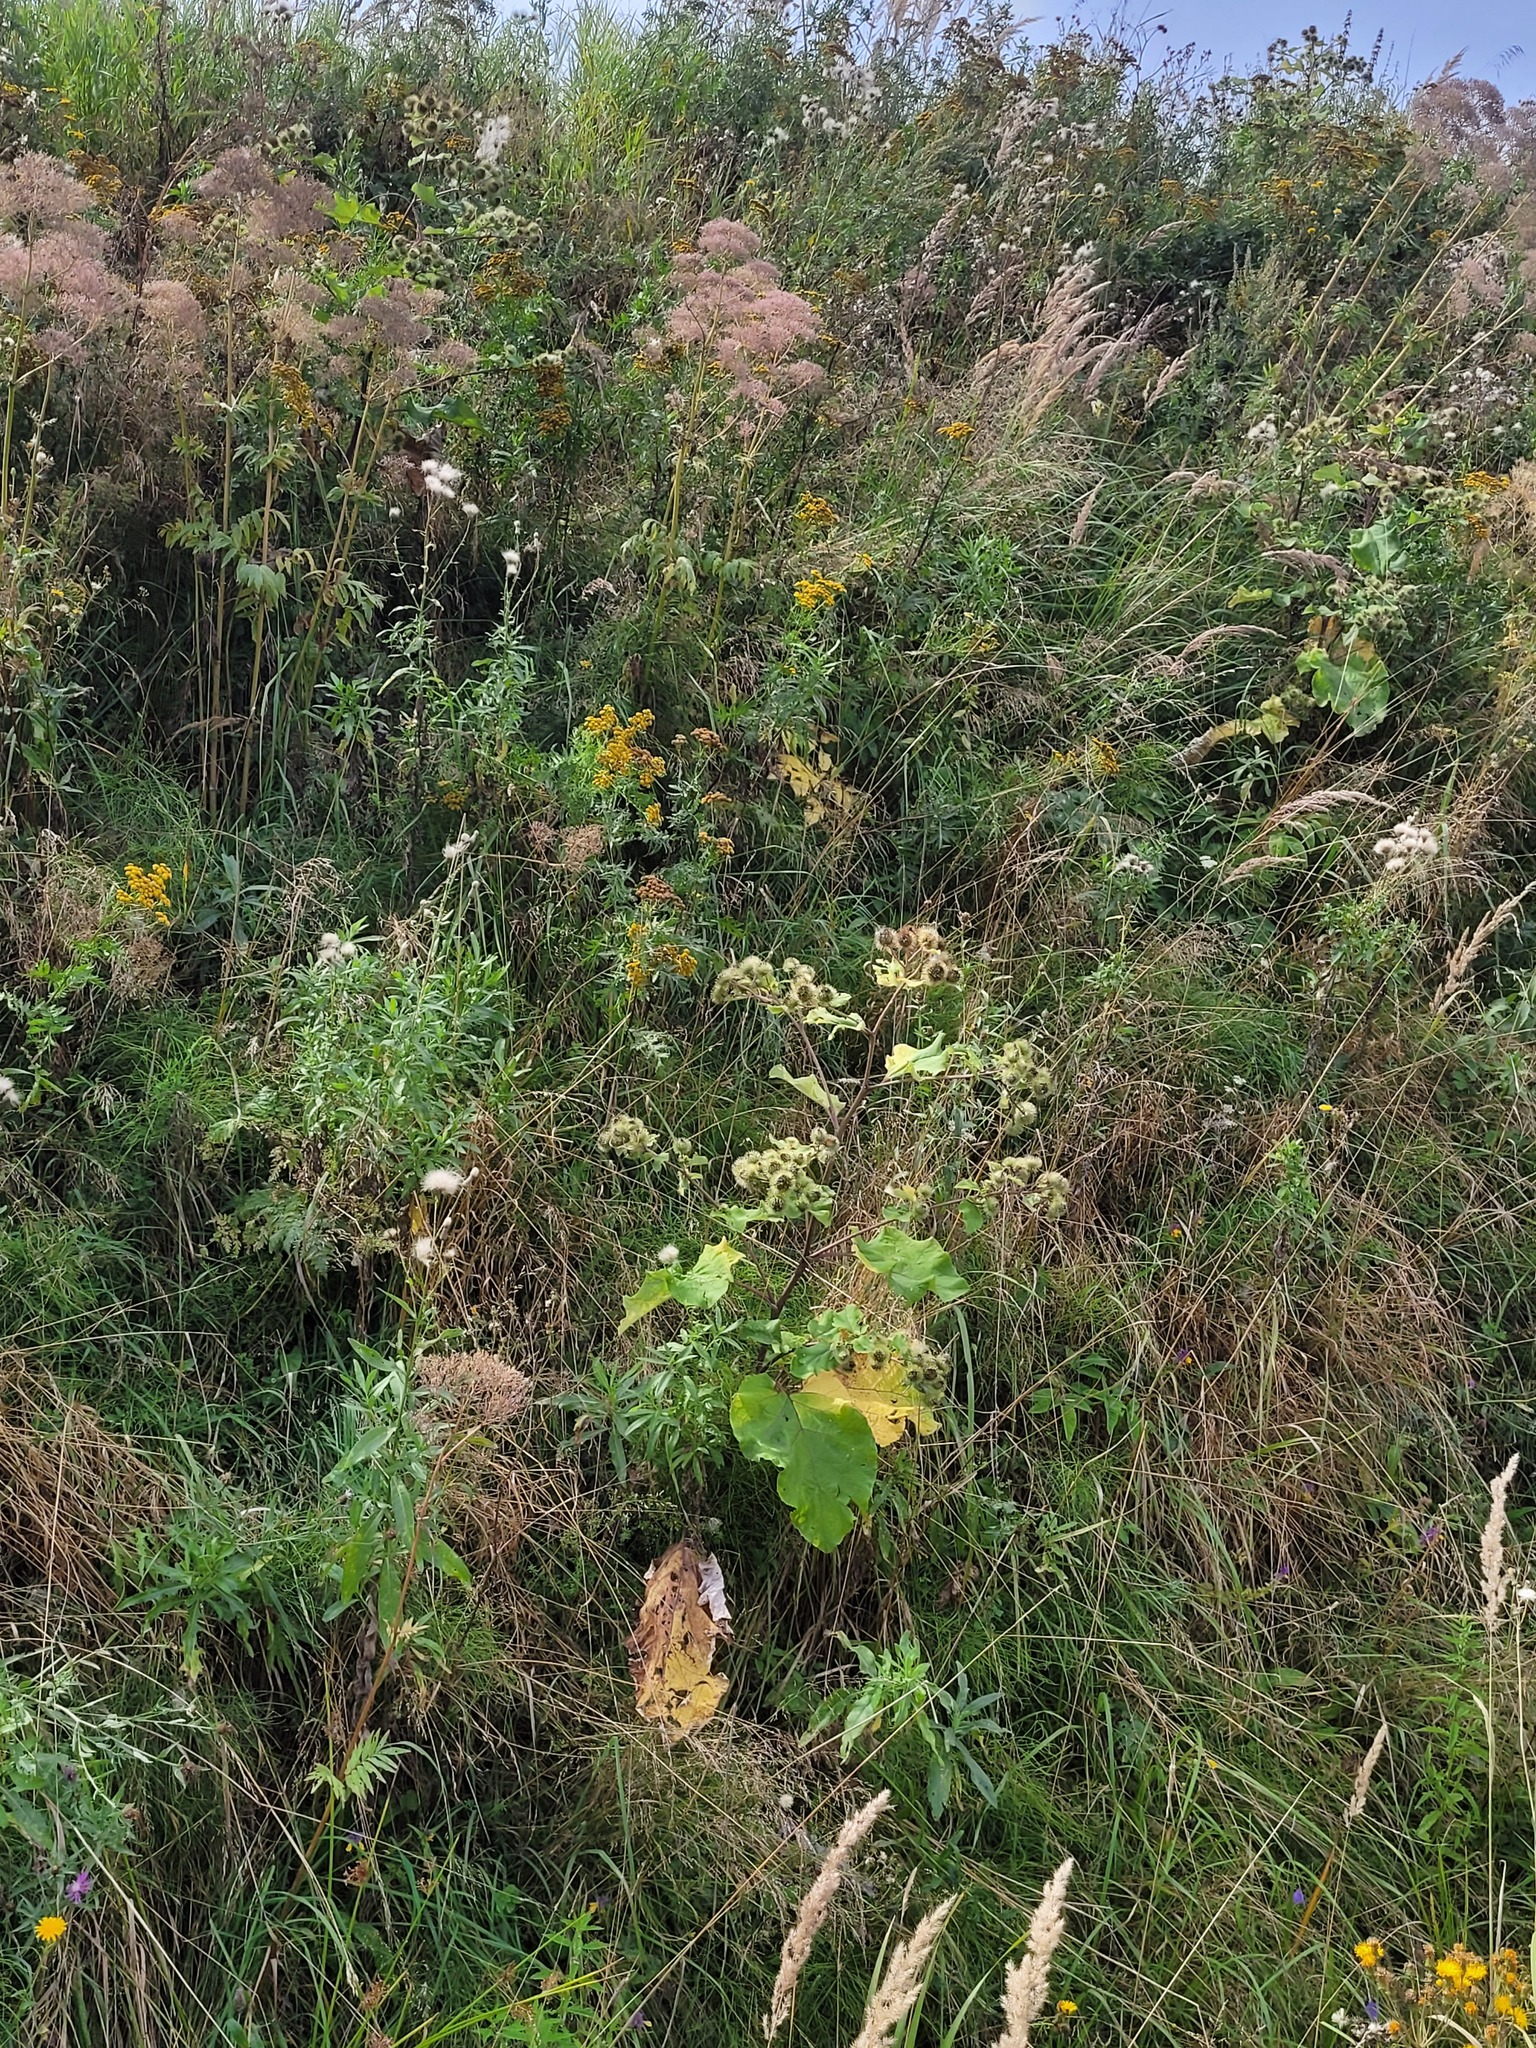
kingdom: Plantae
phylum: Tracheophyta
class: Magnoliopsida
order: Asterales
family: Asteraceae
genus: Arctium
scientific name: Arctium lappa
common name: Greater burdock
